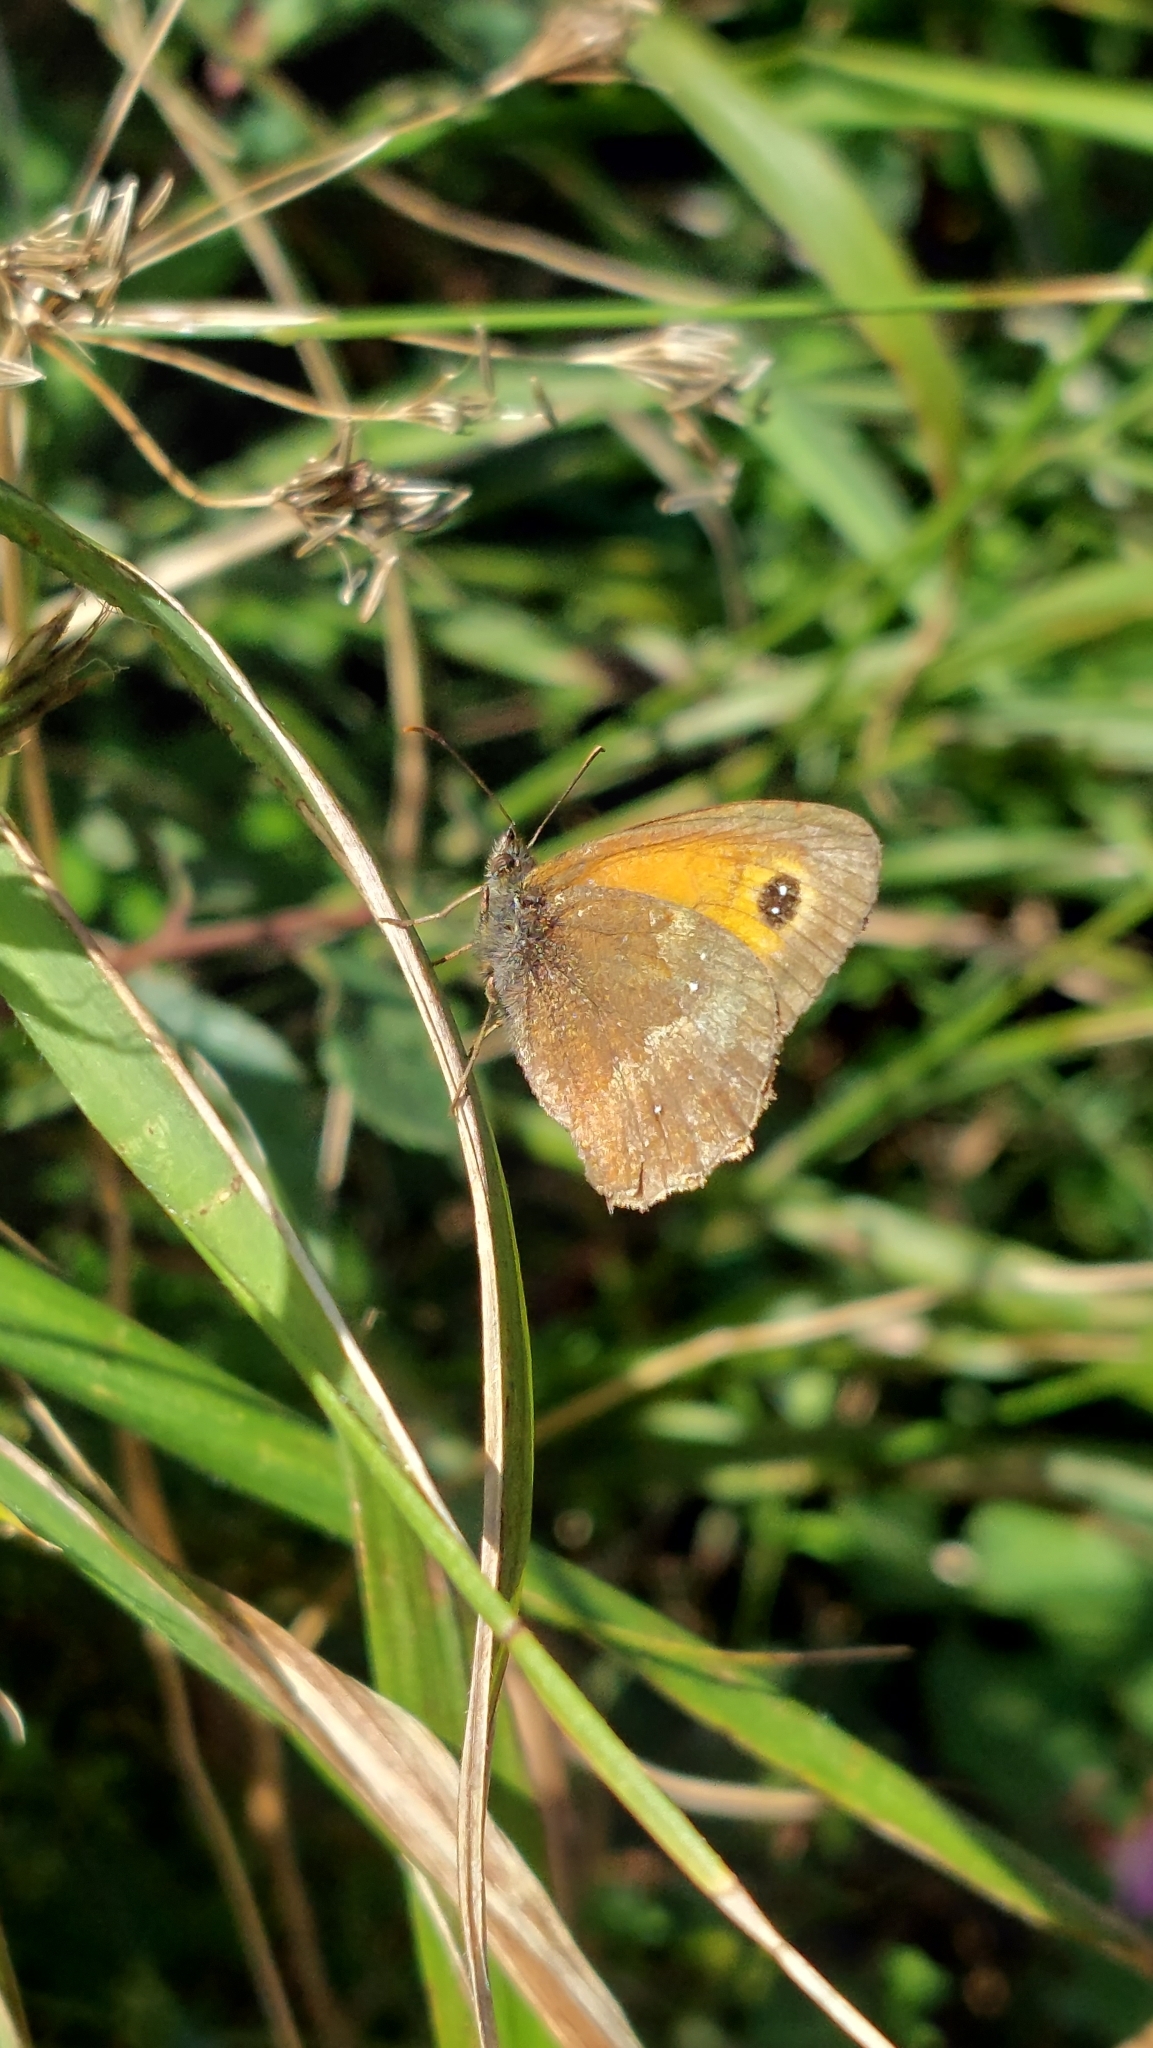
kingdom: Animalia
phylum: Arthropoda
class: Insecta
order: Lepidoptera
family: Nymphalidae
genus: Pyronia
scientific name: Pyronia tithonus
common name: Gatekeeper
